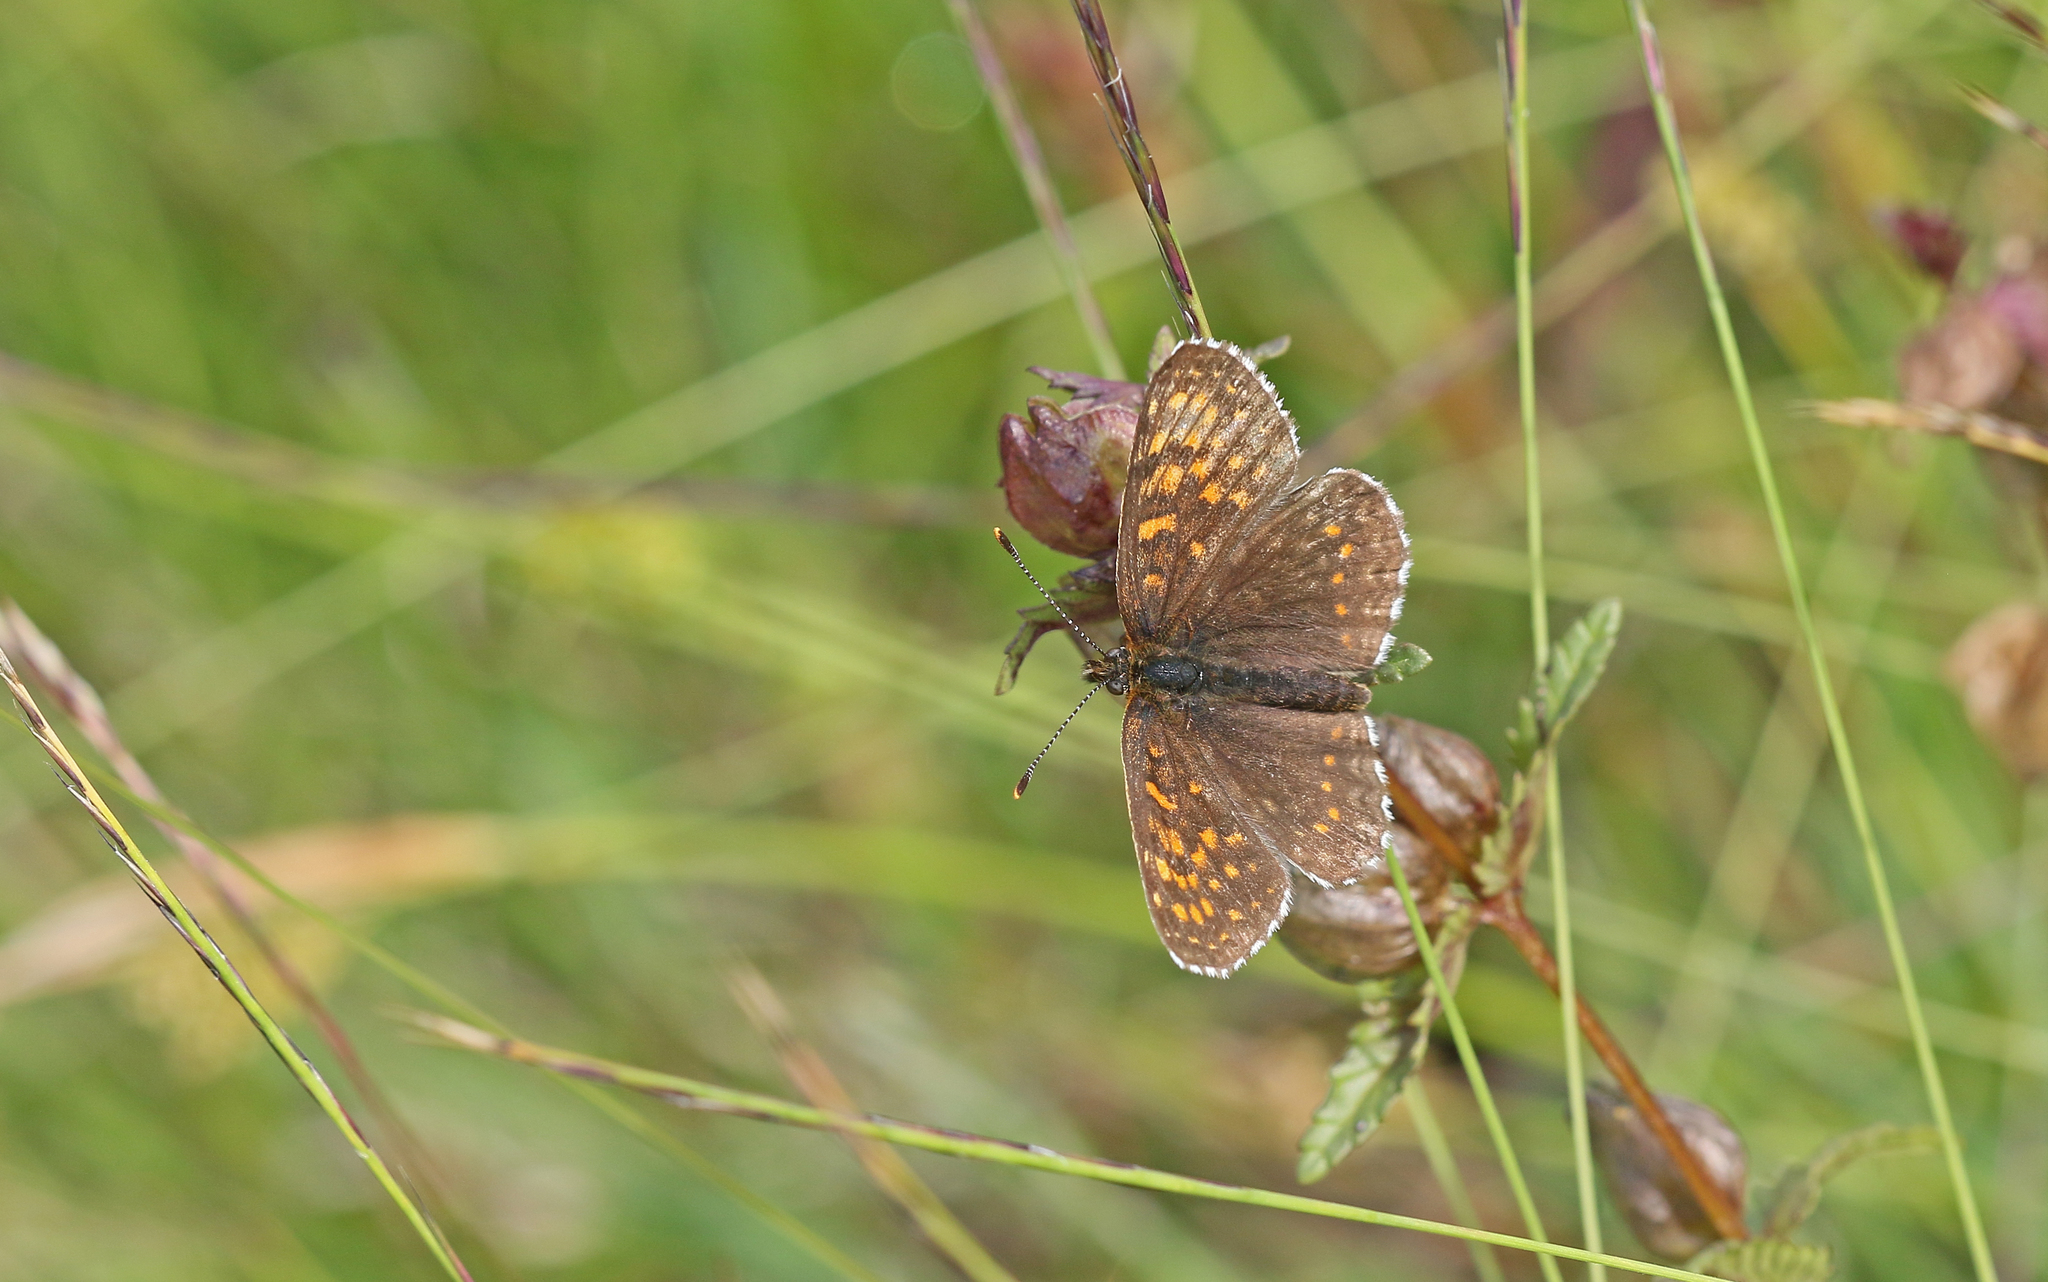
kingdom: Animalia
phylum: Arthropoda
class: Insecta
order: Lepidoptera
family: Nymphalidae
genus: Melitaea
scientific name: Melitaea diamina
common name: False heath fritillary
